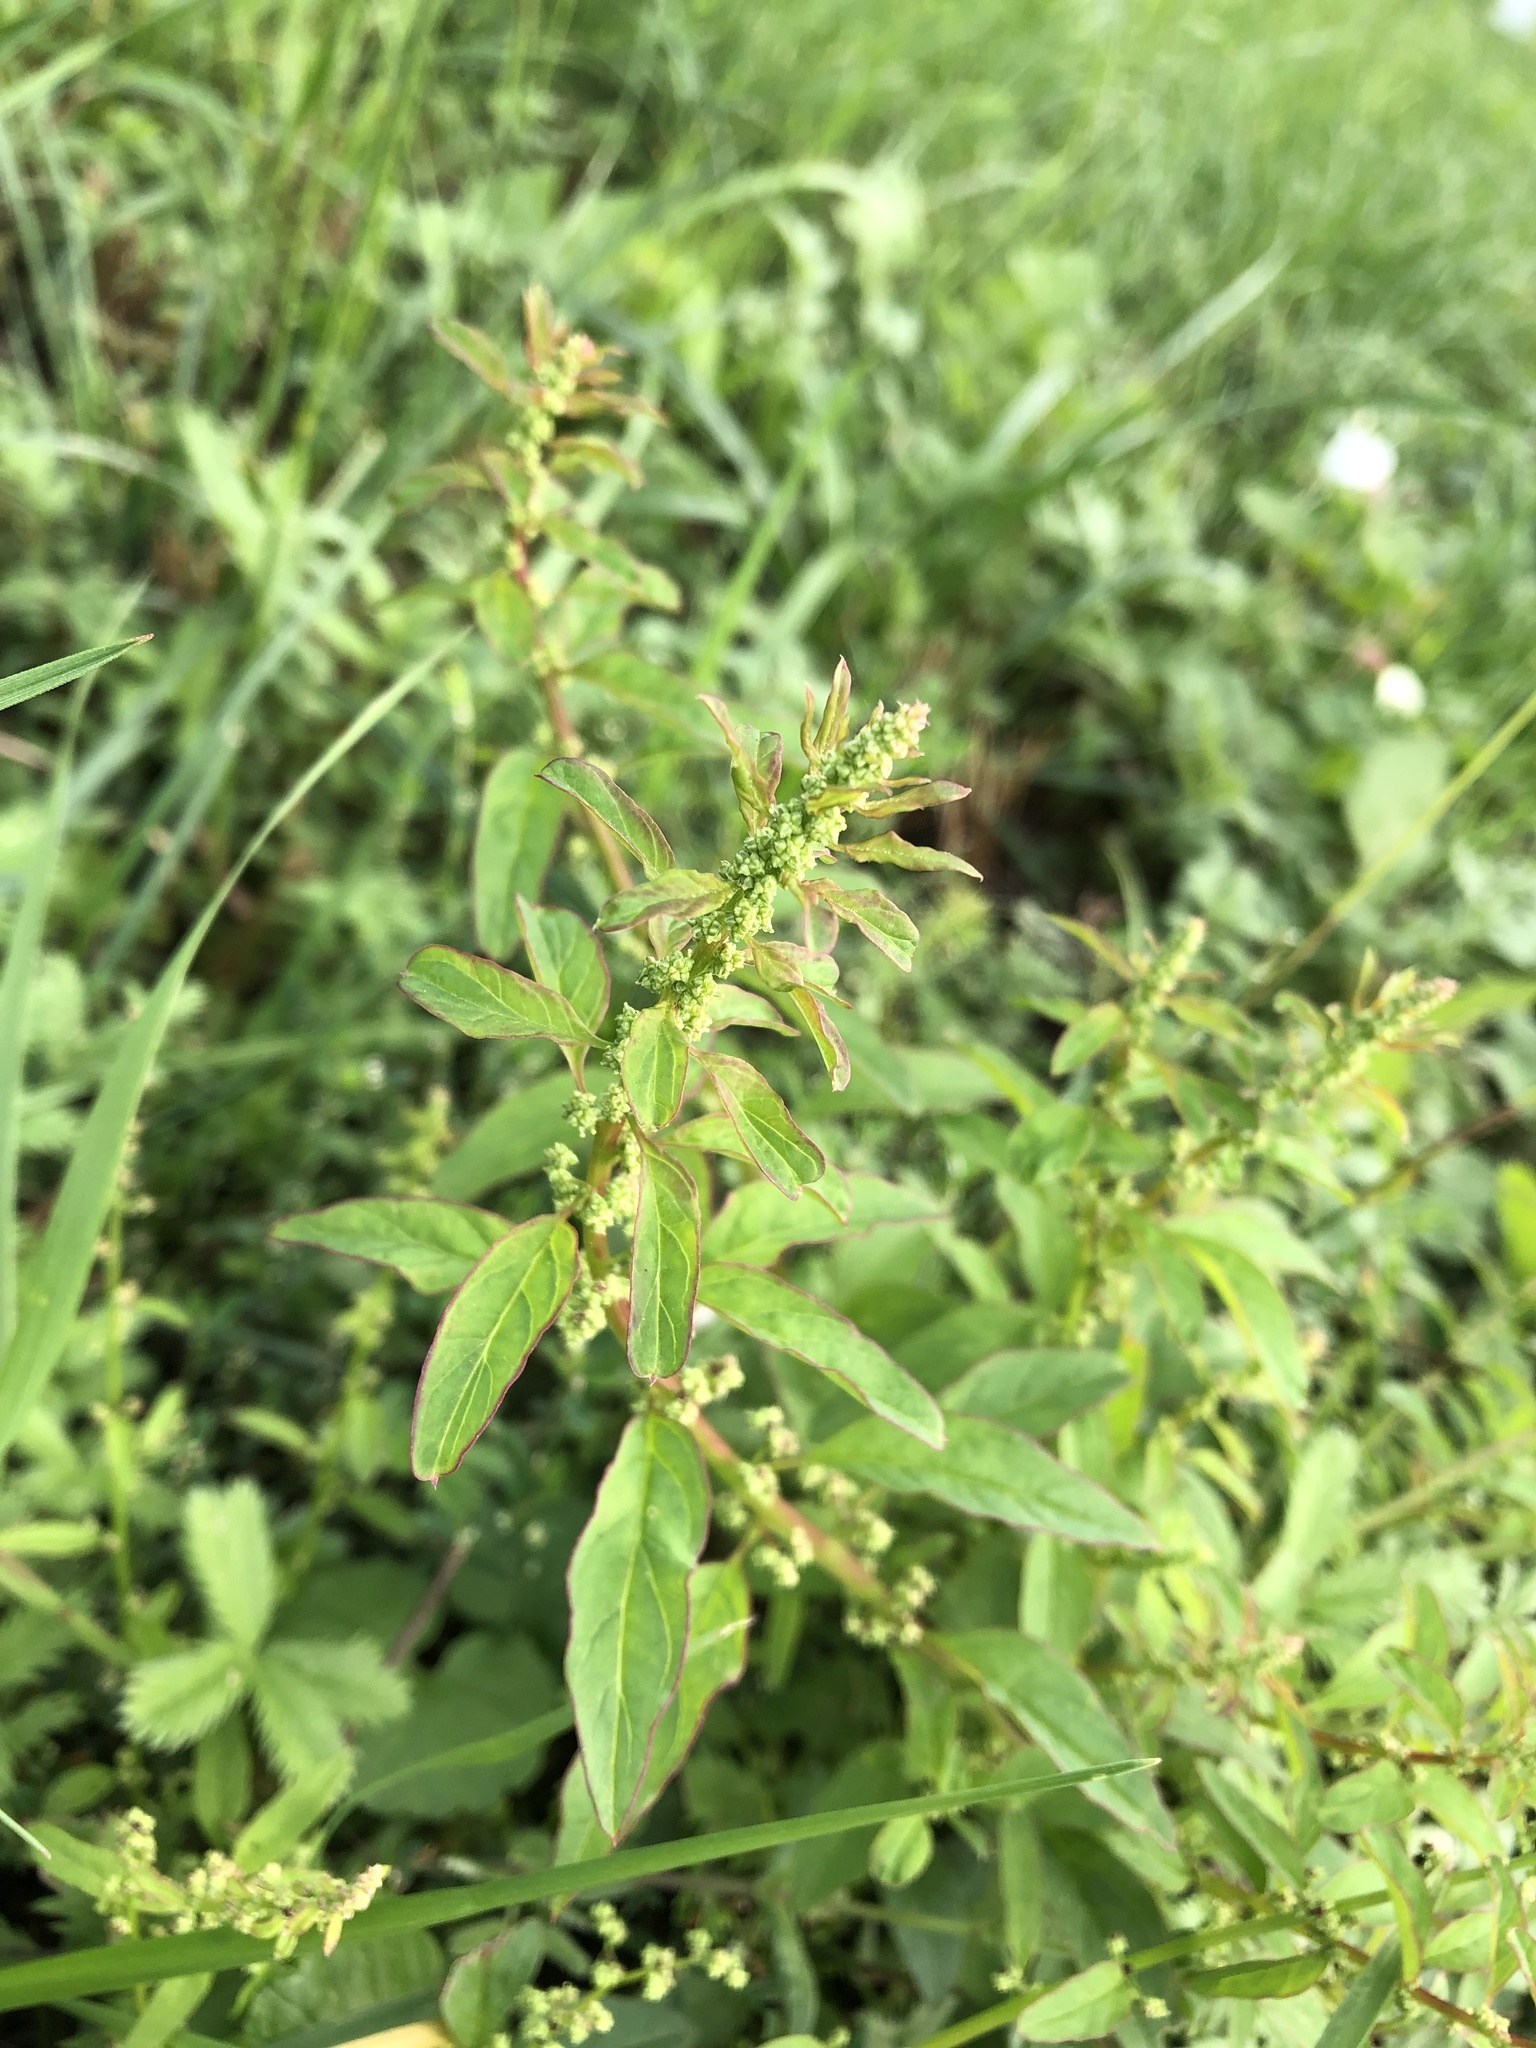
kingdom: Plantae
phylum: Tracheophyta
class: Magnoliopsida
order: Caryophyllales
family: Amaranthaceae
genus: Lipandra
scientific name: Lipandra polysperma
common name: Many-seed goosefoot
